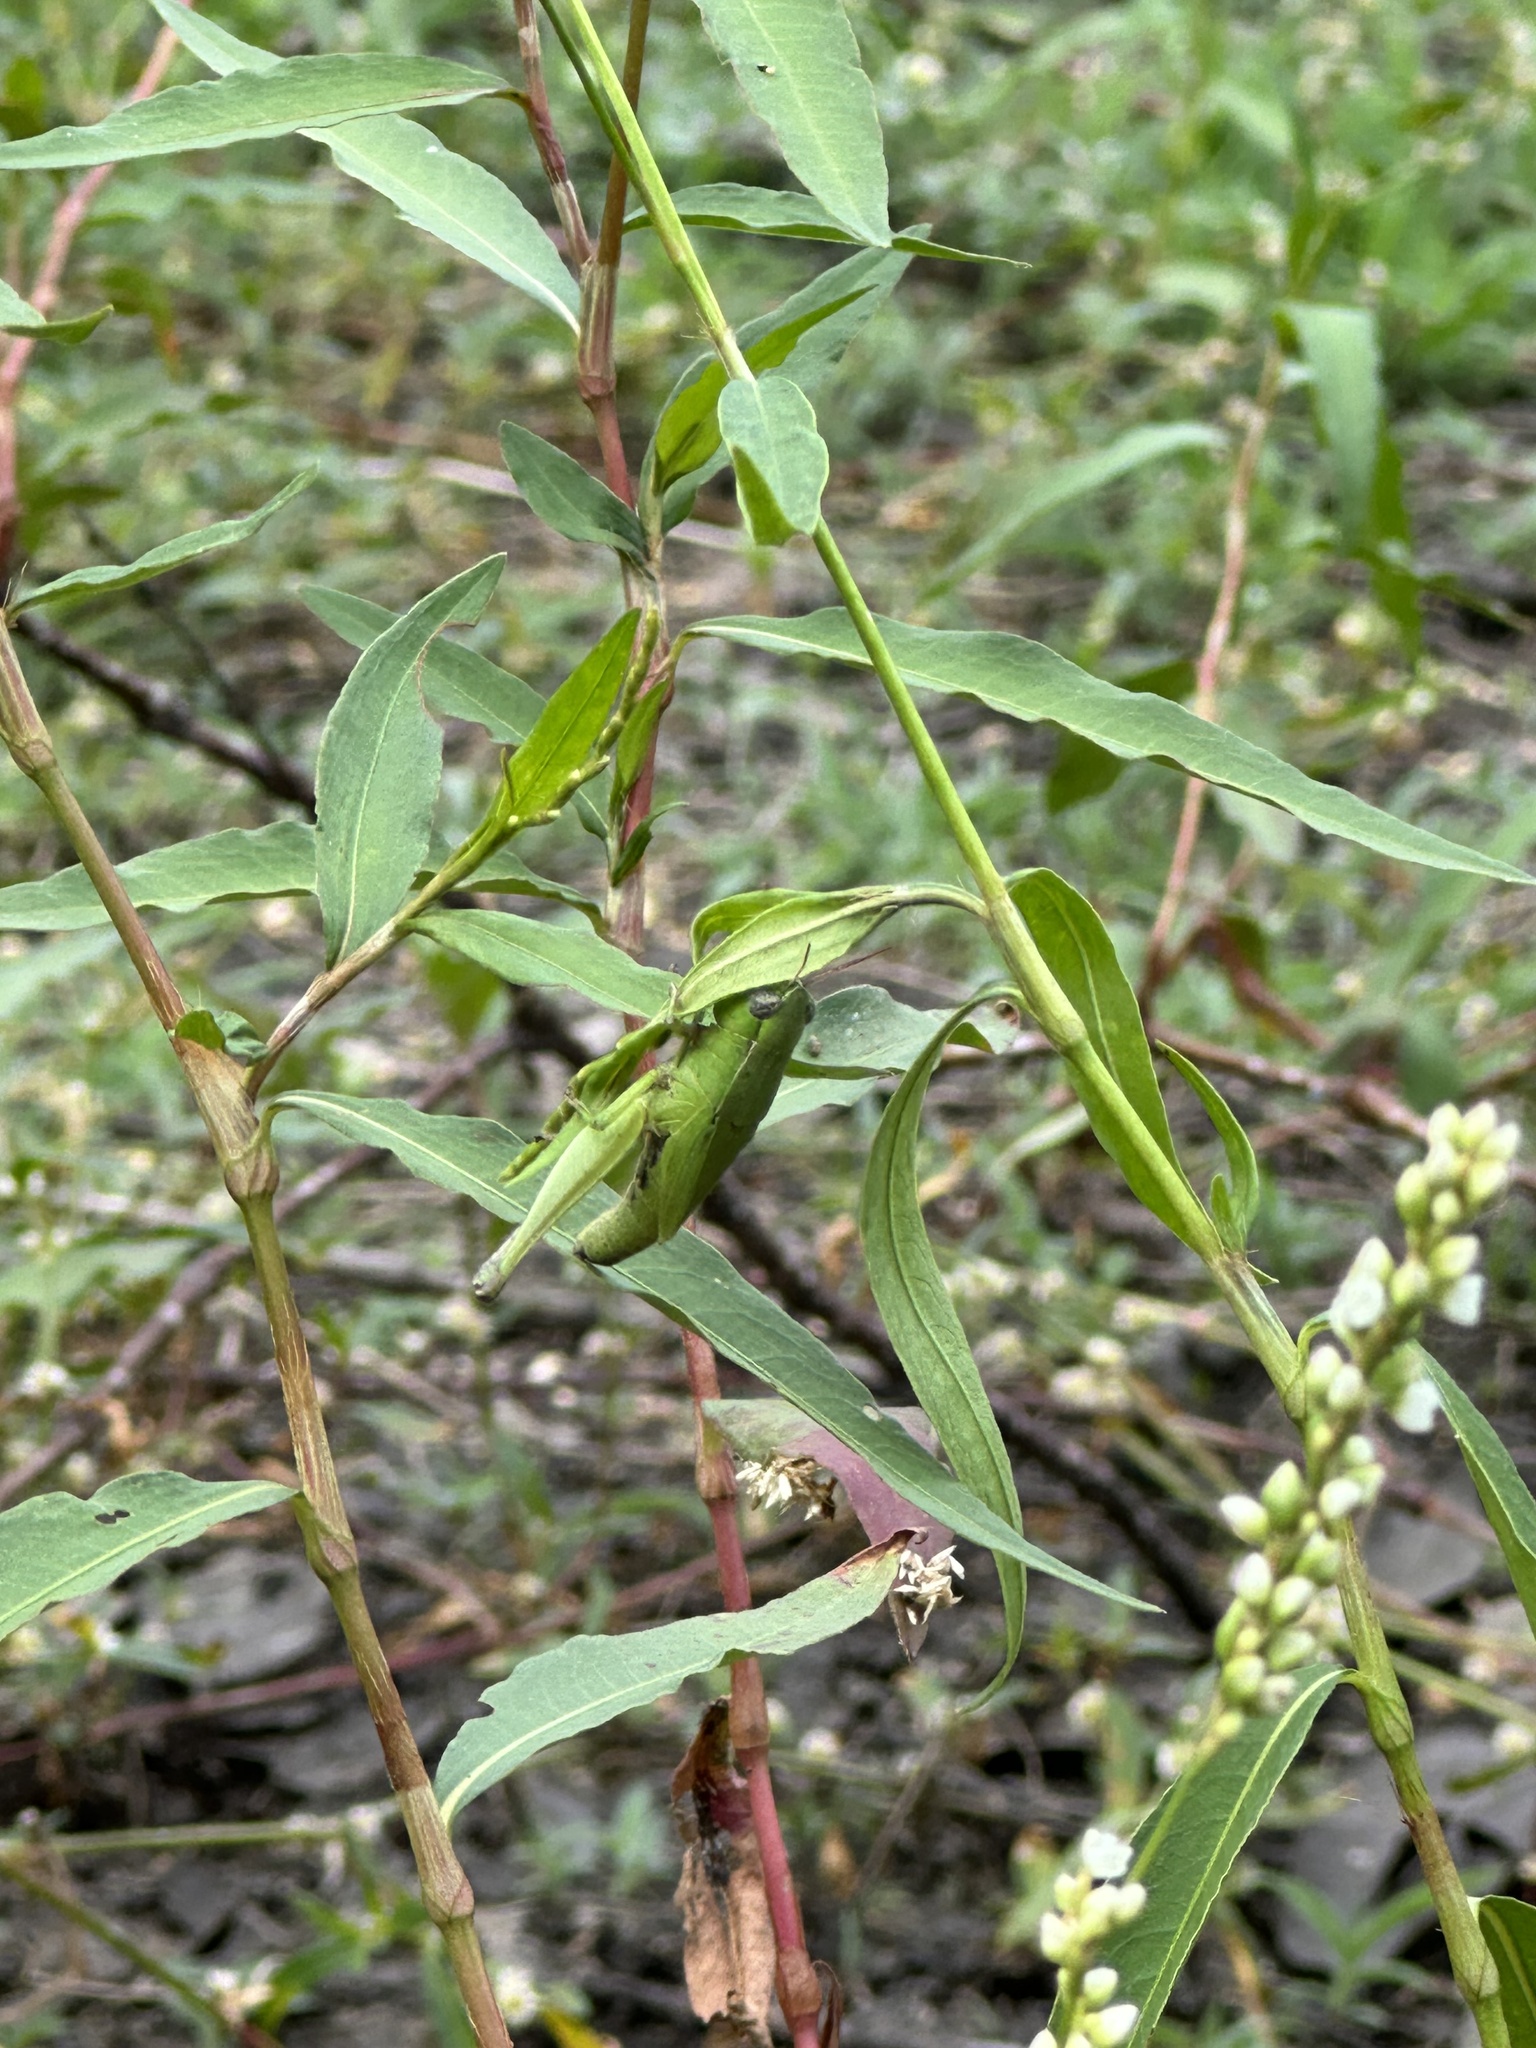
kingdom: Animalia
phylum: Arthropoda
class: Insecta
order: Orthoptera
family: Acrididae
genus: Dichromorpha
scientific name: Dichromorpha viridis
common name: Short-winged green grasshopper
